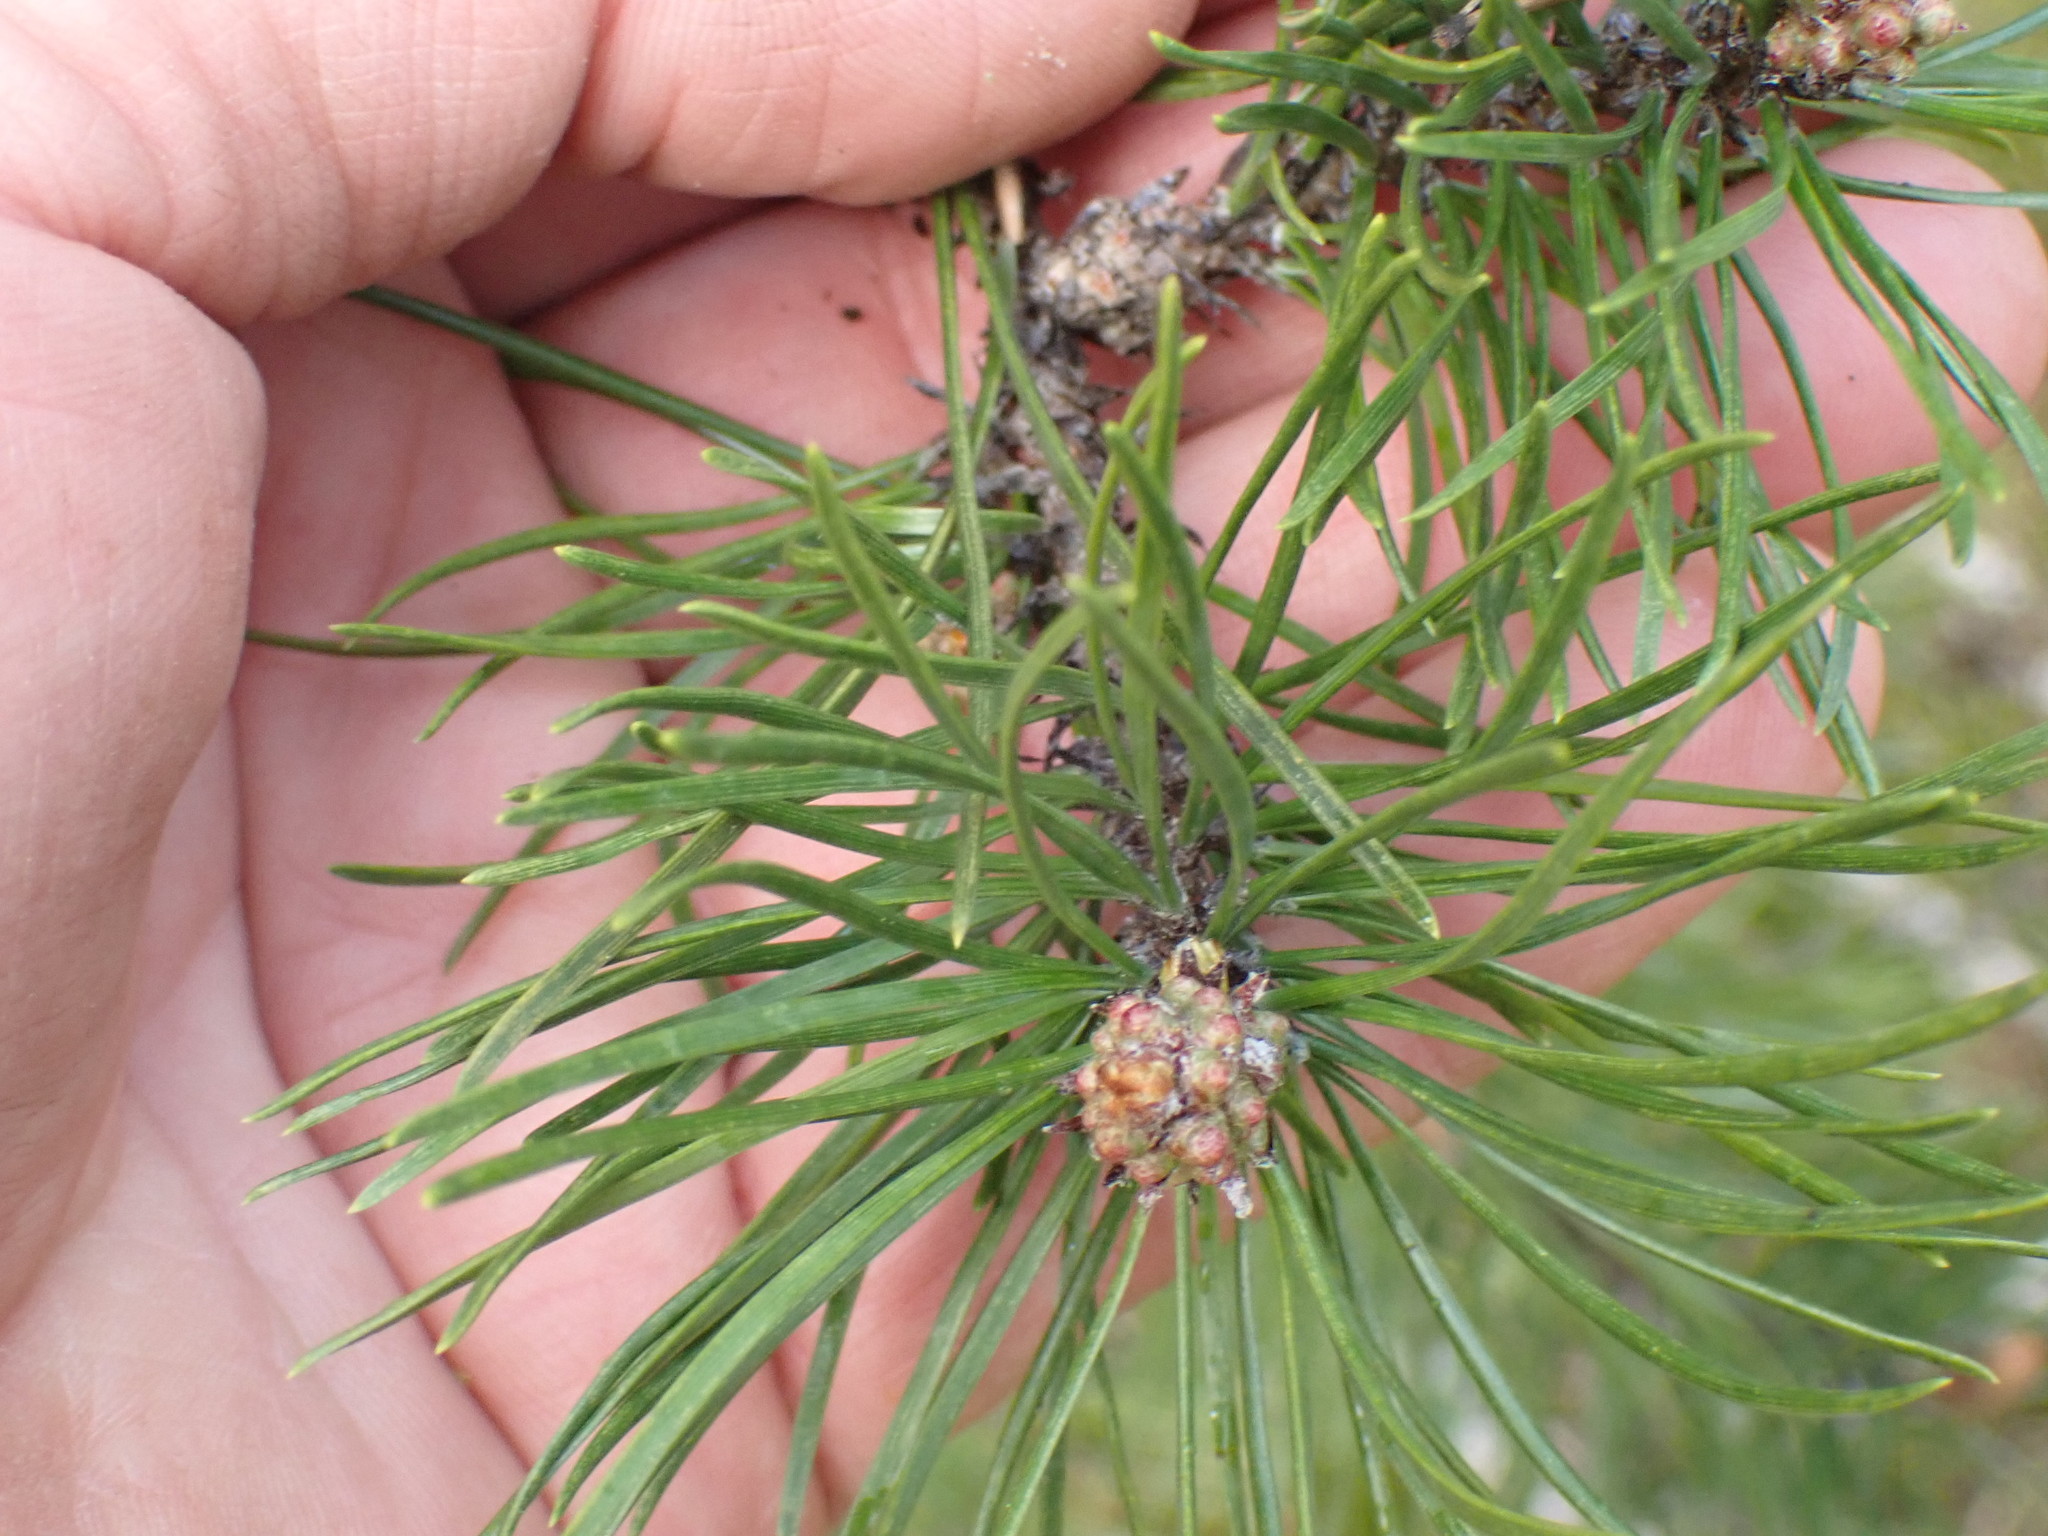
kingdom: Plantae
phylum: Tracheophyta
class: Pinopsida
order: Pinales
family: Pinaceae
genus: Pinus
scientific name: Pinus contorta
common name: Lodgepole pine
